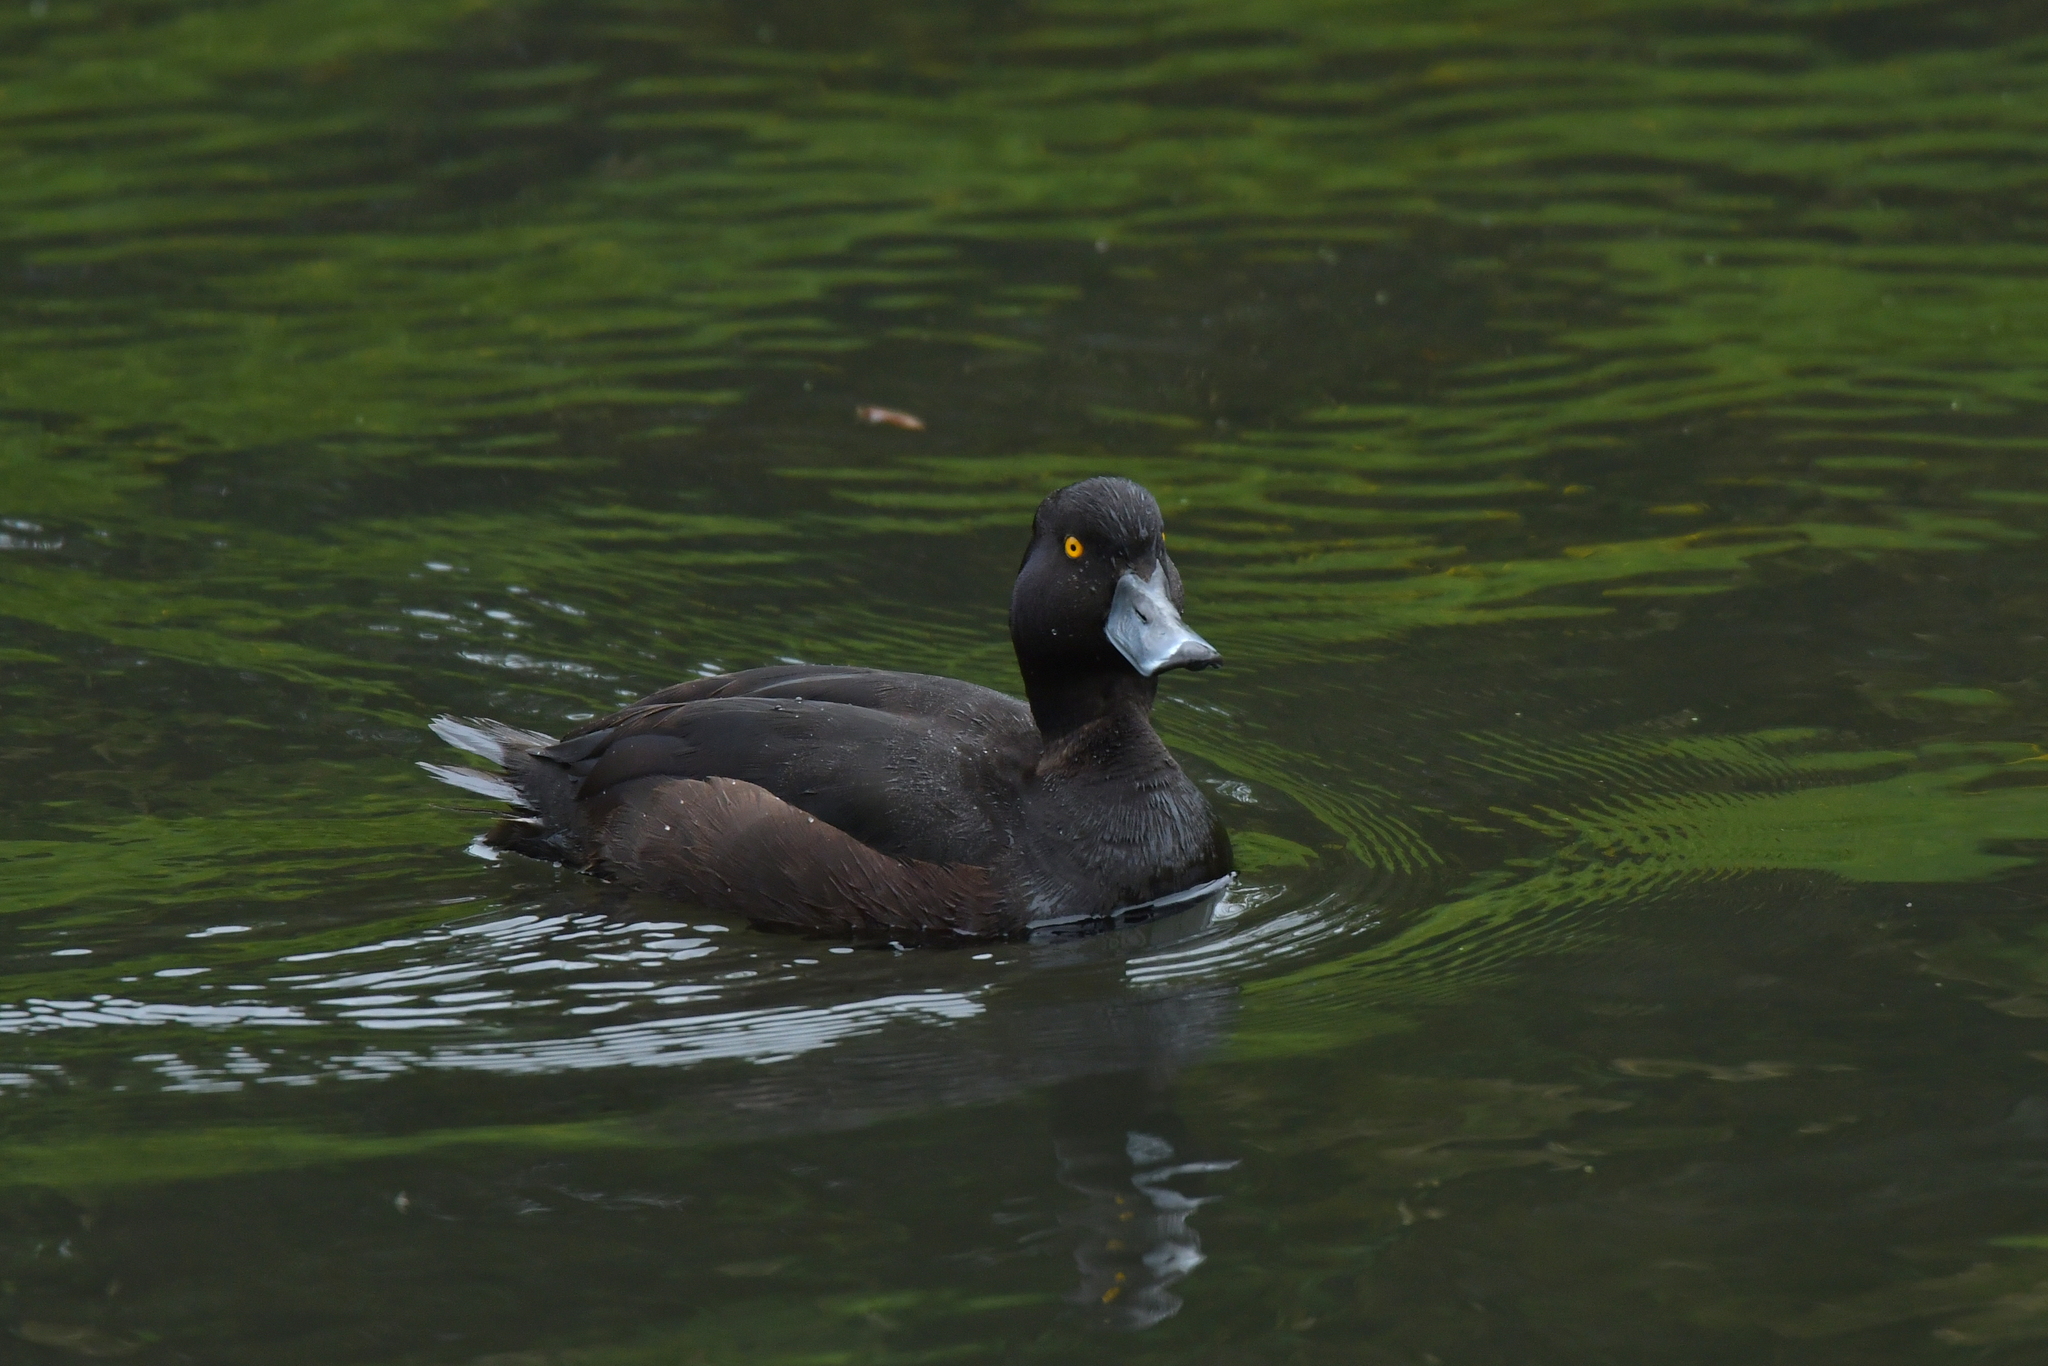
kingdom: Animalia
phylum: Chordata
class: Aves
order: Anseriformes
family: Anatidae
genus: Aythya
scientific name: Aythya novaeseelandiae
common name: New zealand scaup
